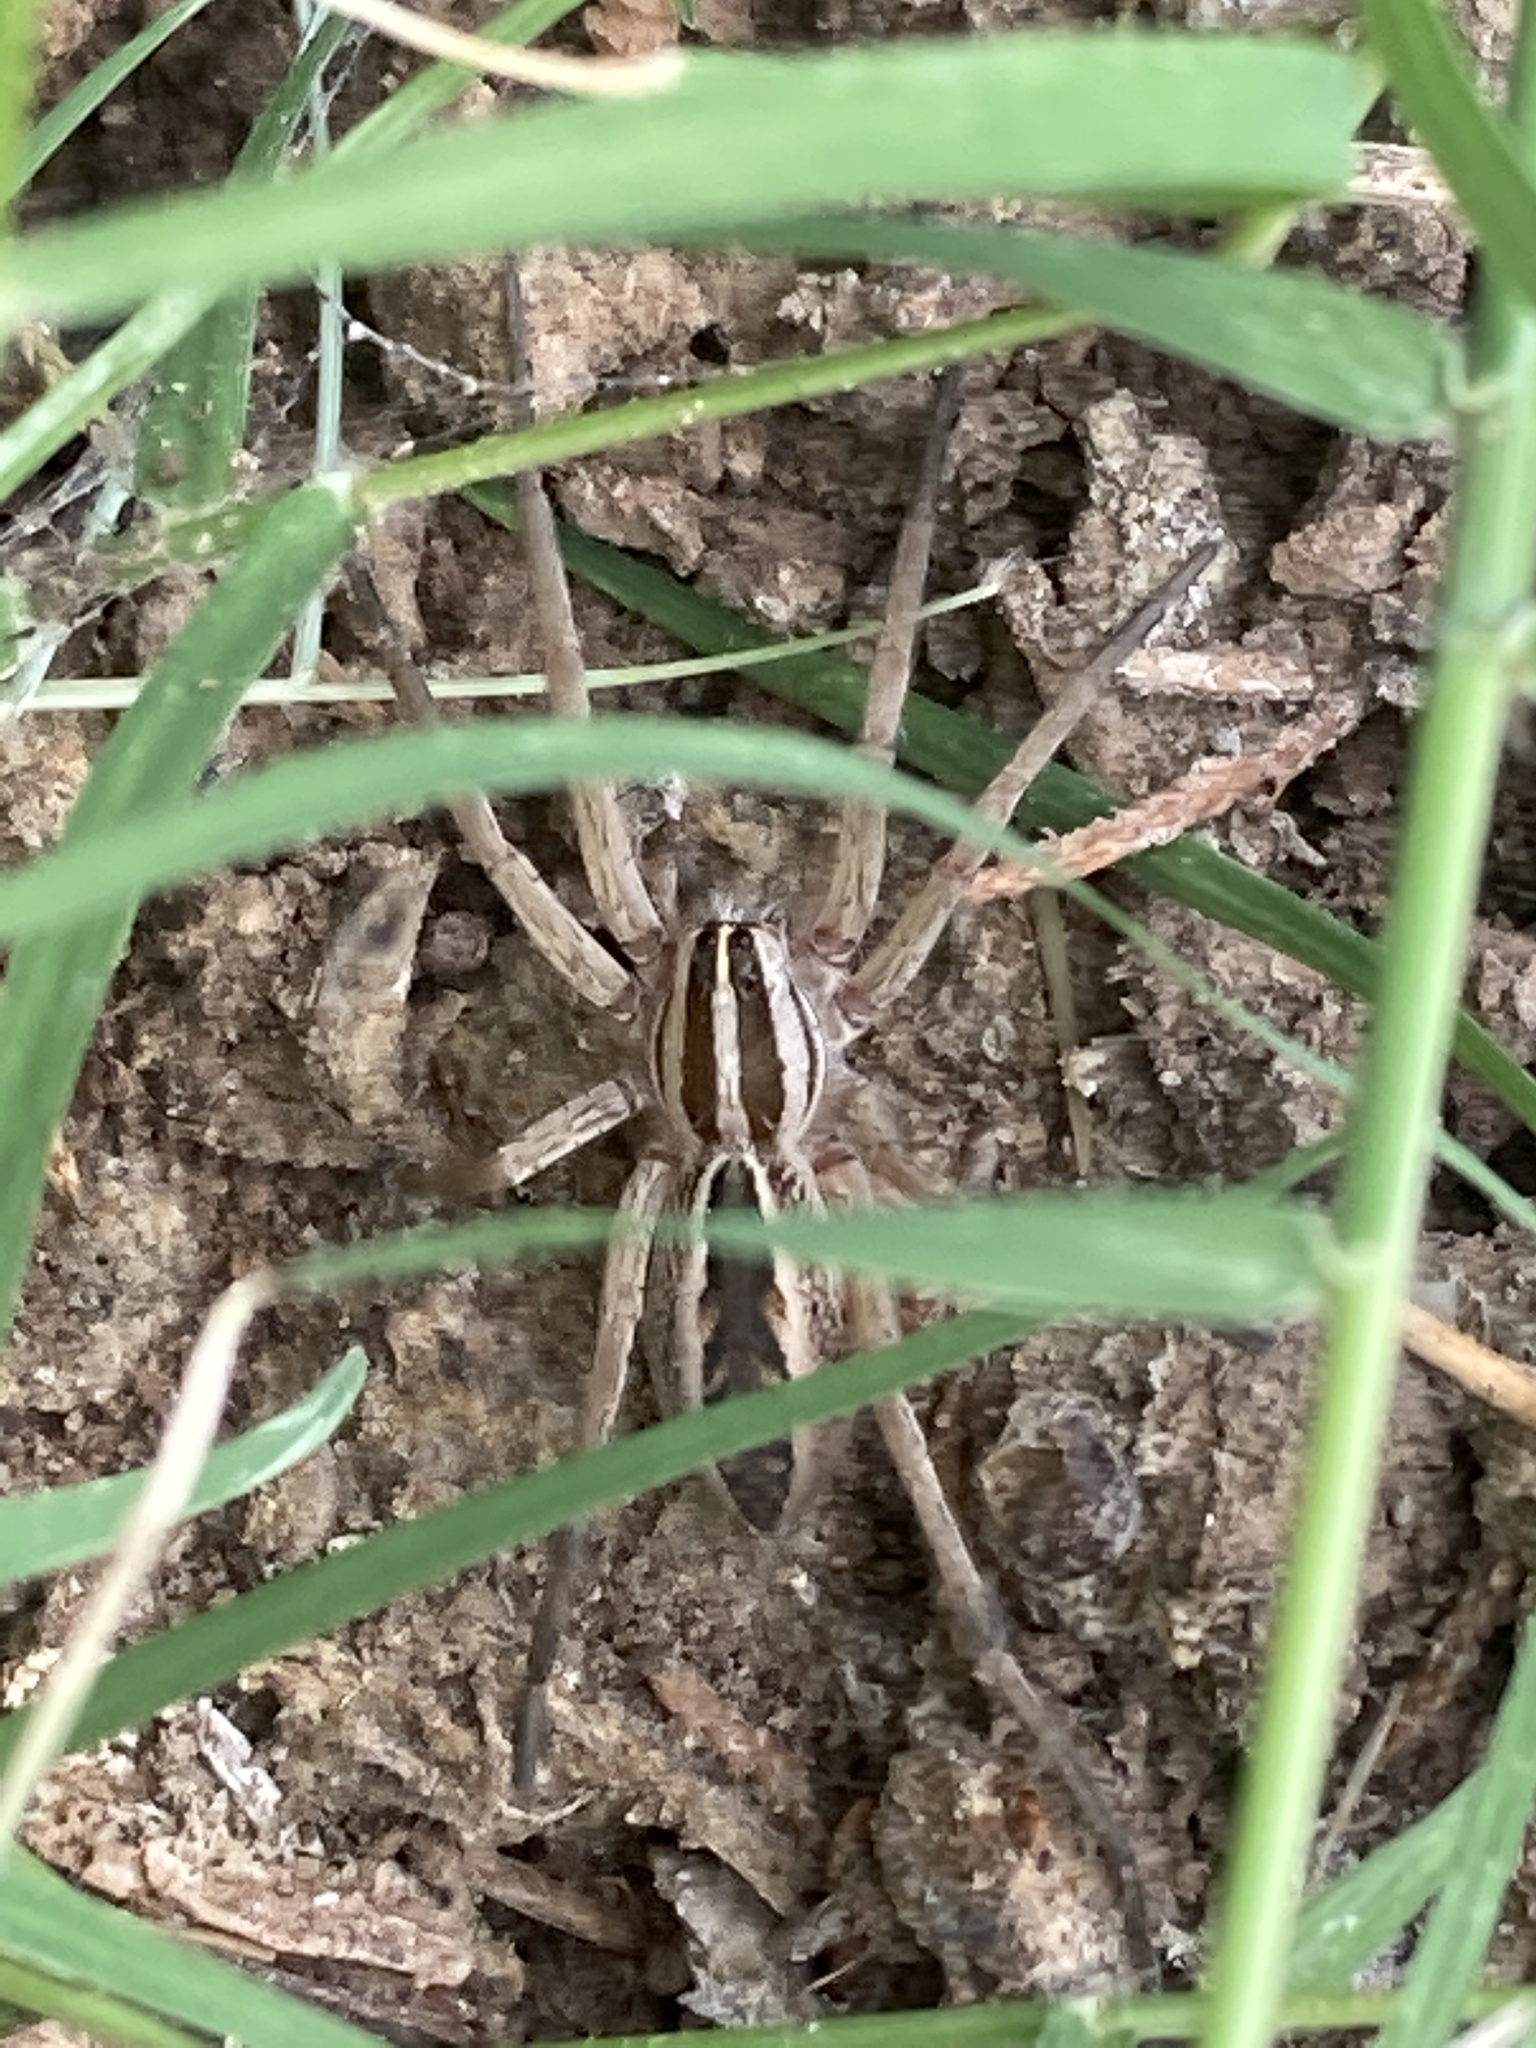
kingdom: Animalia
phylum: Arthropoda
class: Arachnida
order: Araneae
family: Lycosidae
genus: Rabidosa
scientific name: Rabidosa rabida
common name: Rabid wolf spider
